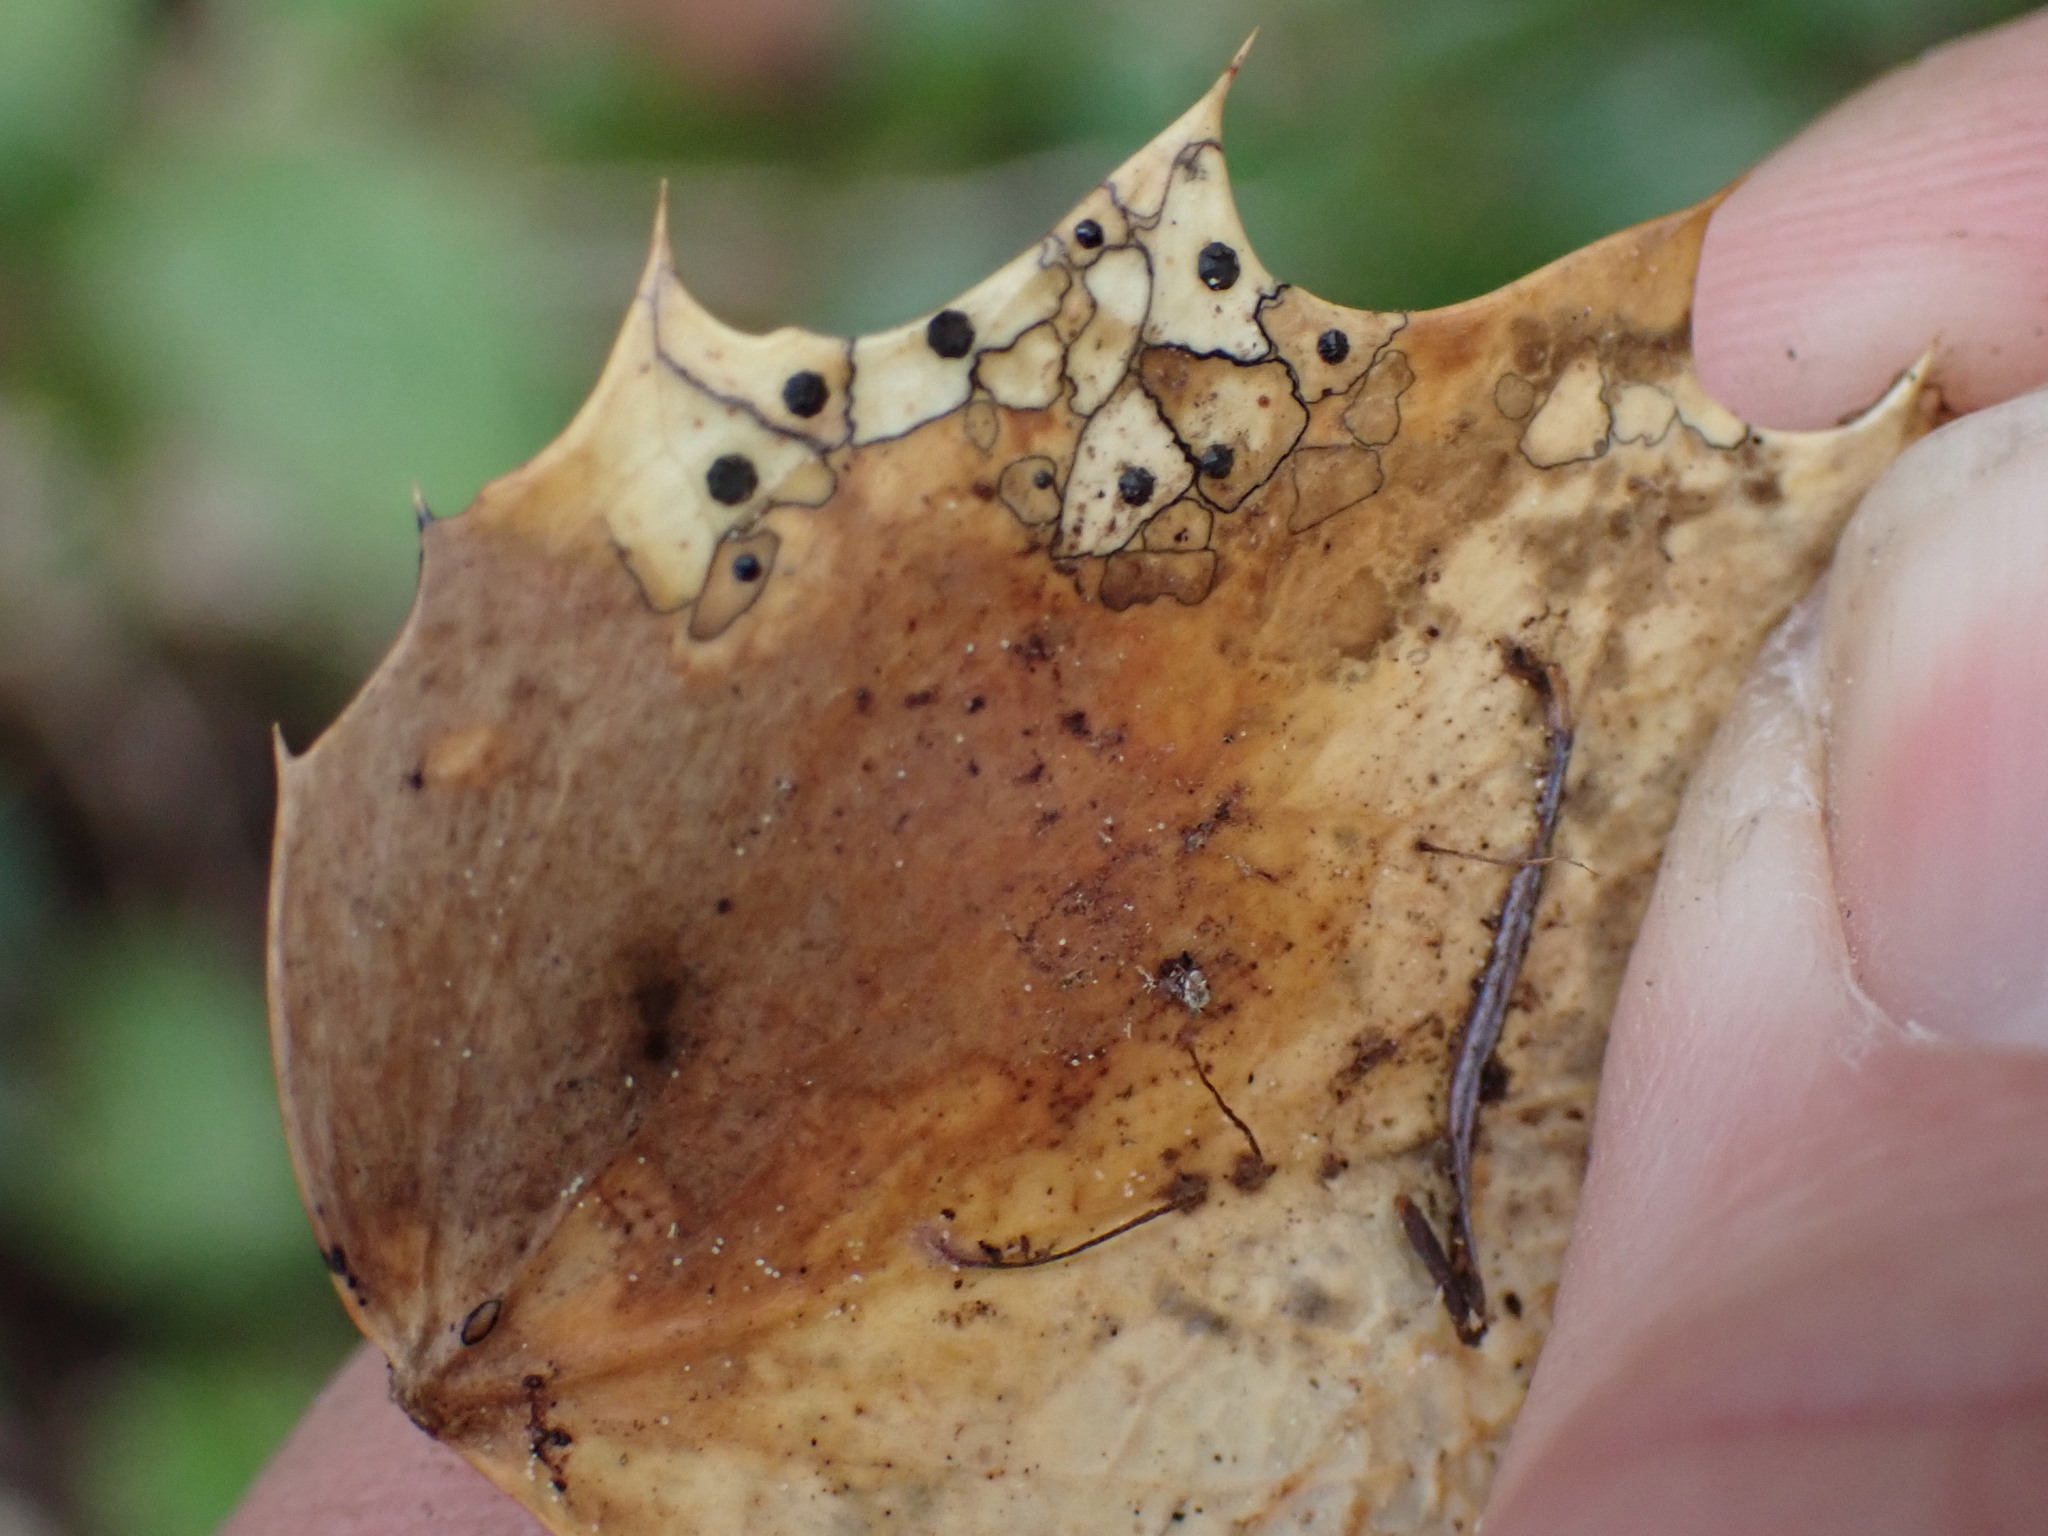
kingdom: Fungi
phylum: Ascomycota
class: Leotiomycetes
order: Rhytismatales
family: Rhytismataceae
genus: Coccomyces
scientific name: Coccomyces dentatus
